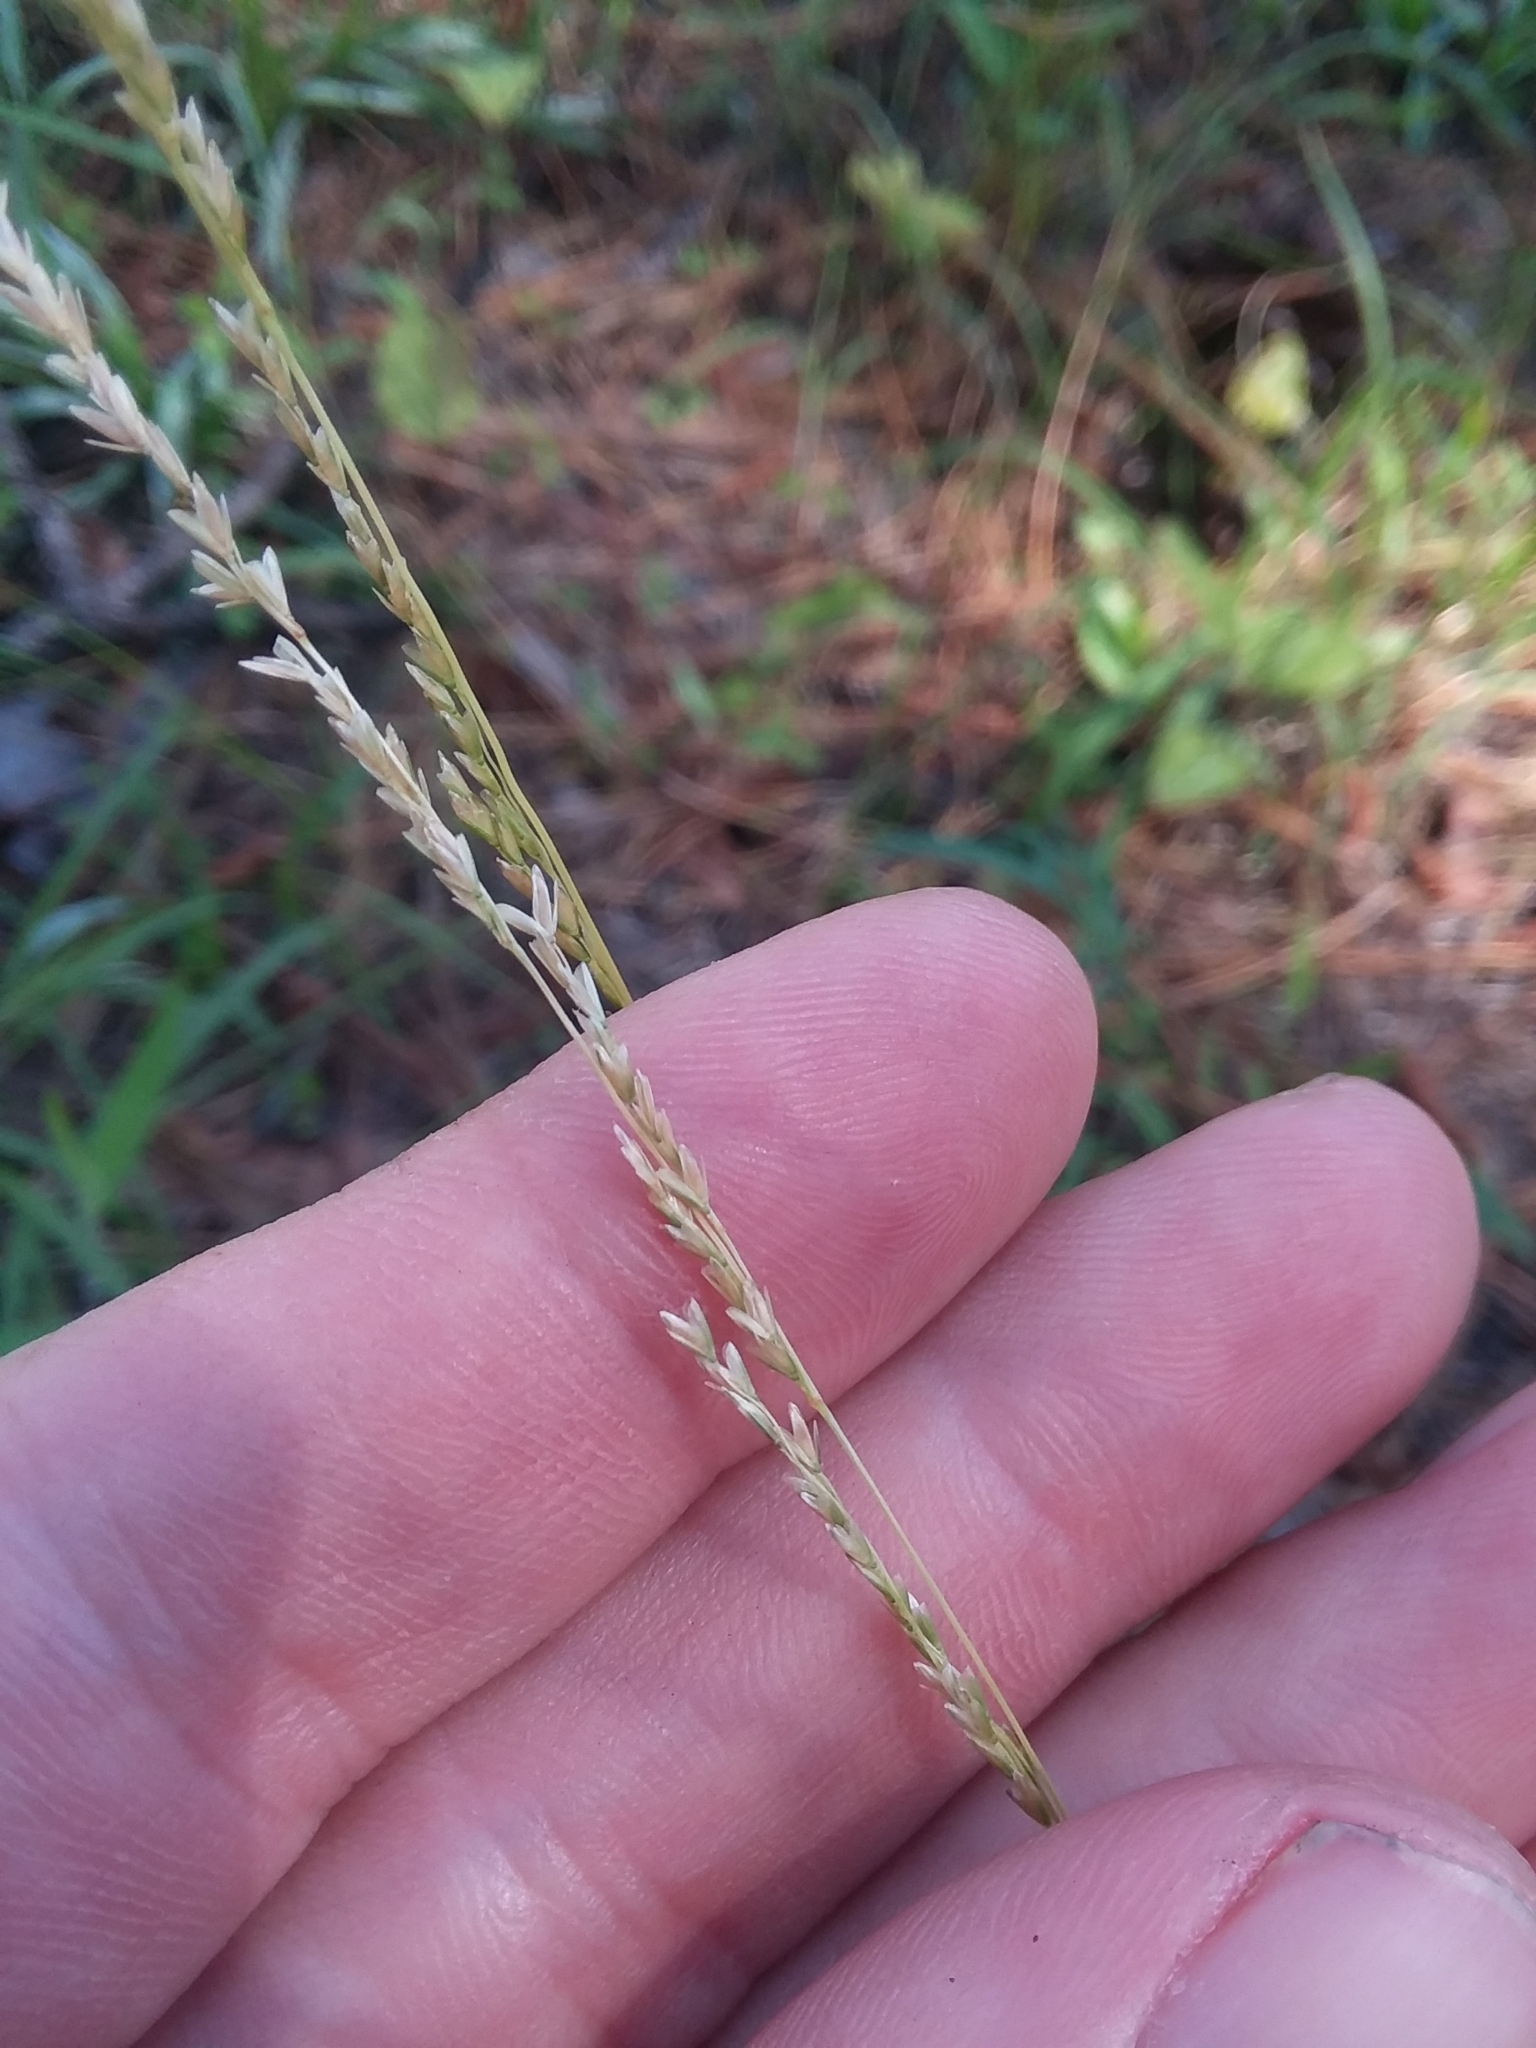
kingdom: Plantae
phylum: Tracheophyta
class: Liliopsida
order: Poales
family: Poaceae
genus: Sphenopholis
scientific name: Sphenopholis filiformis
